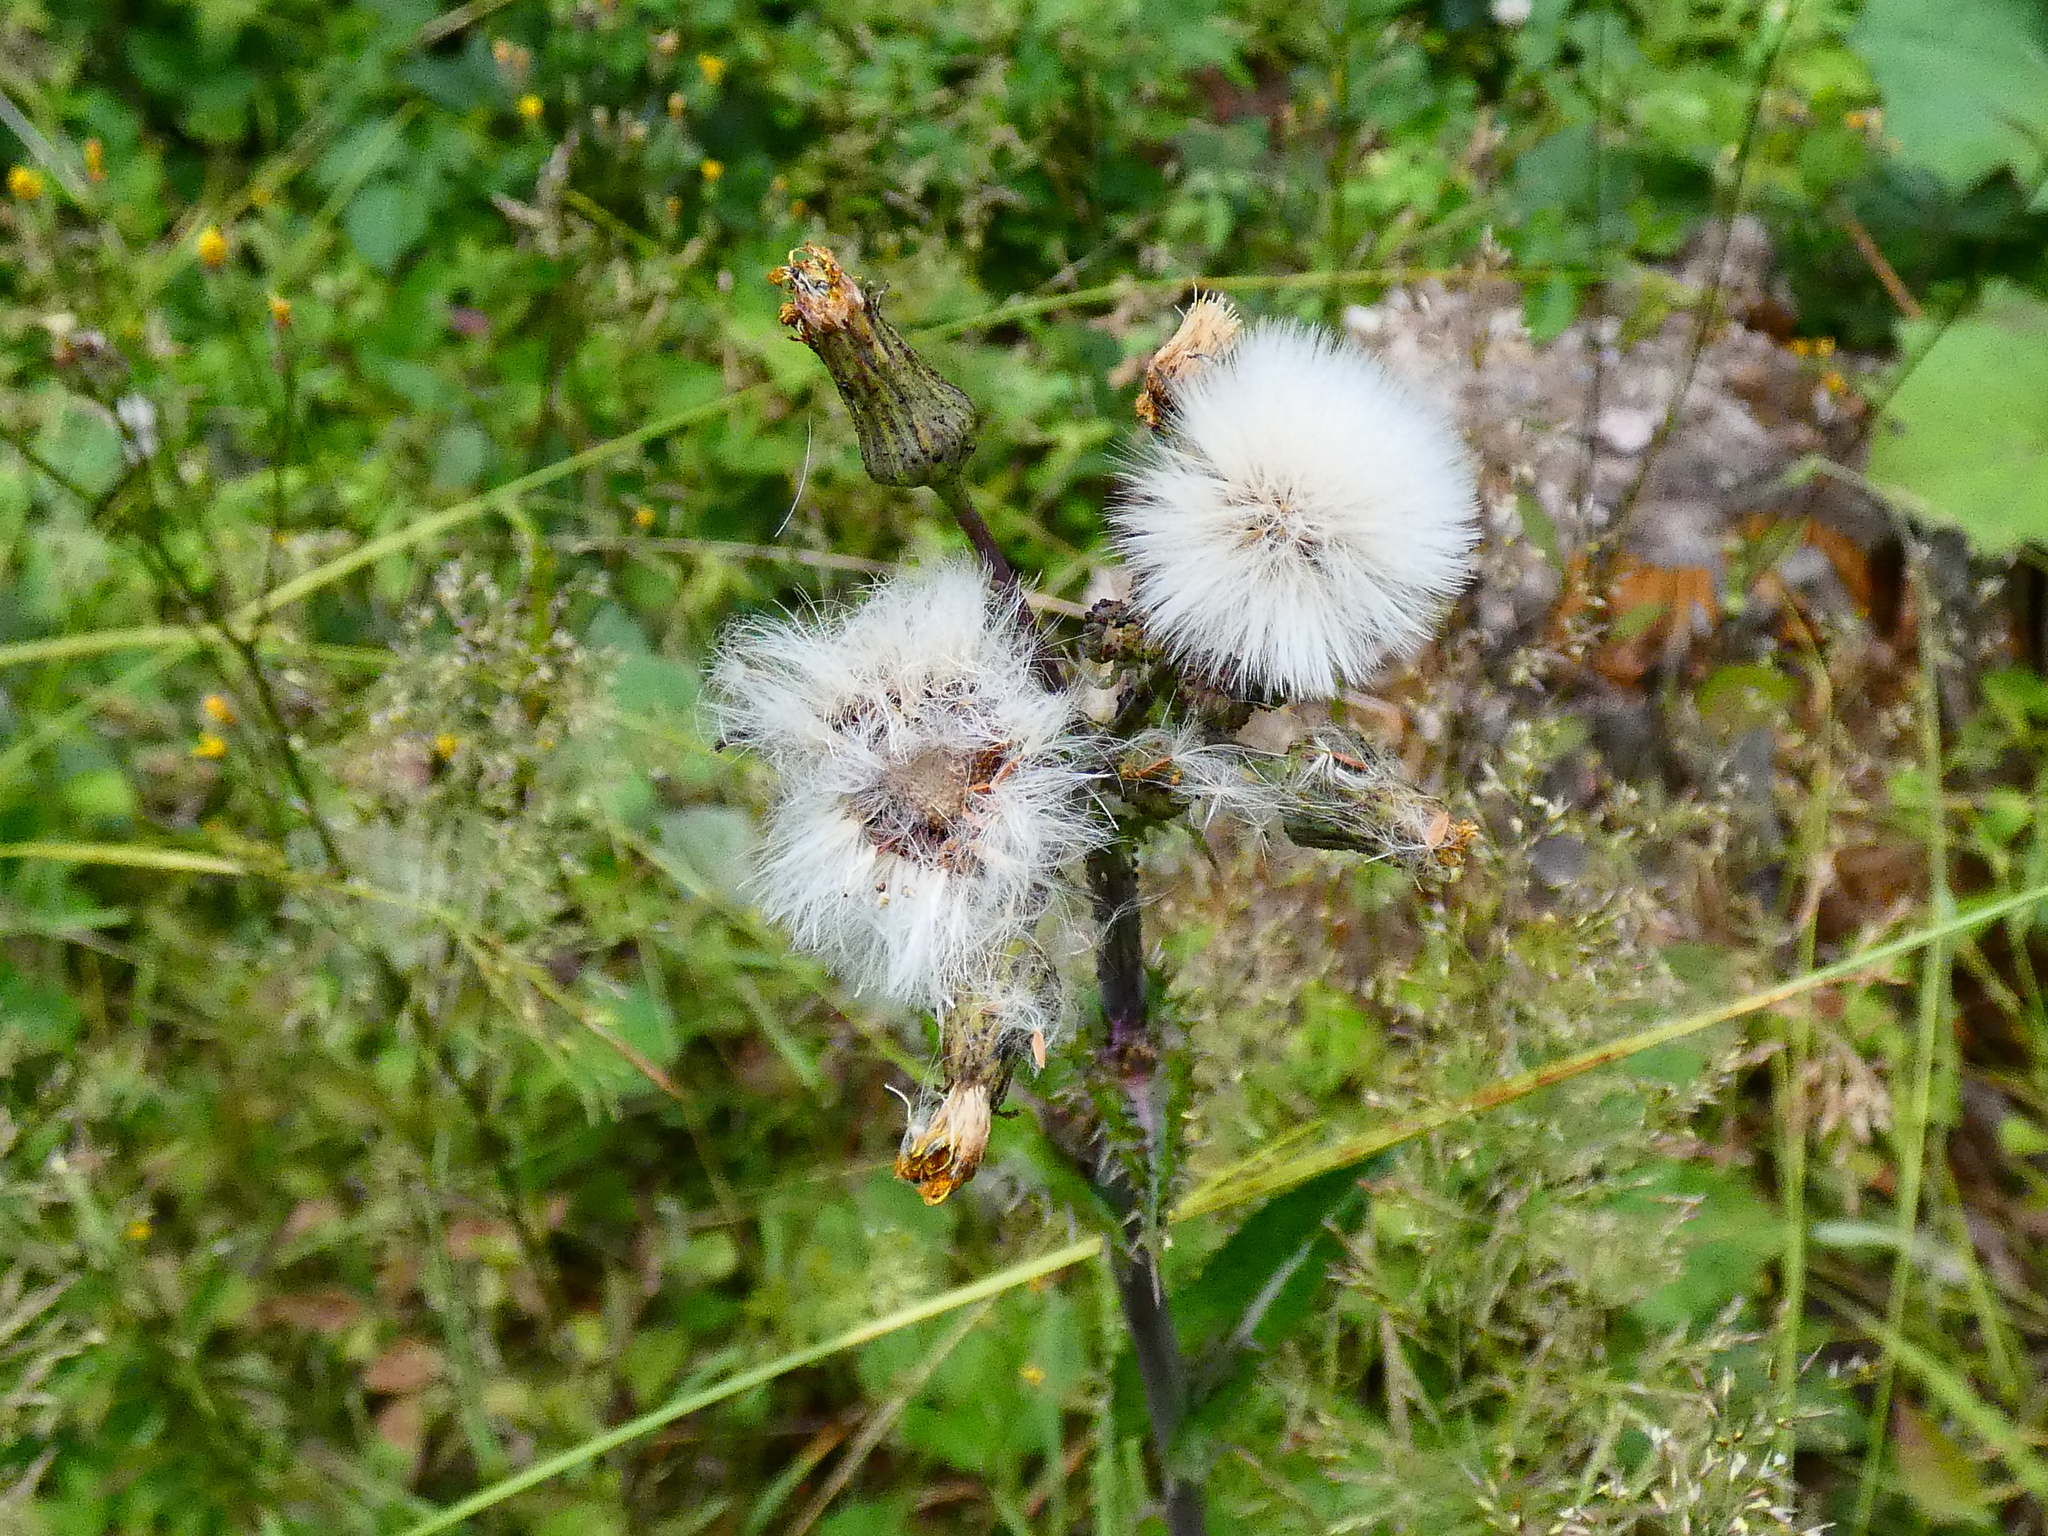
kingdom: Plantae
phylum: Tracheophyta
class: Magnoliopsida
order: Asterales
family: Asteraceae
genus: Sonchus
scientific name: Sonchus asper
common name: Prickly sow-thistle
